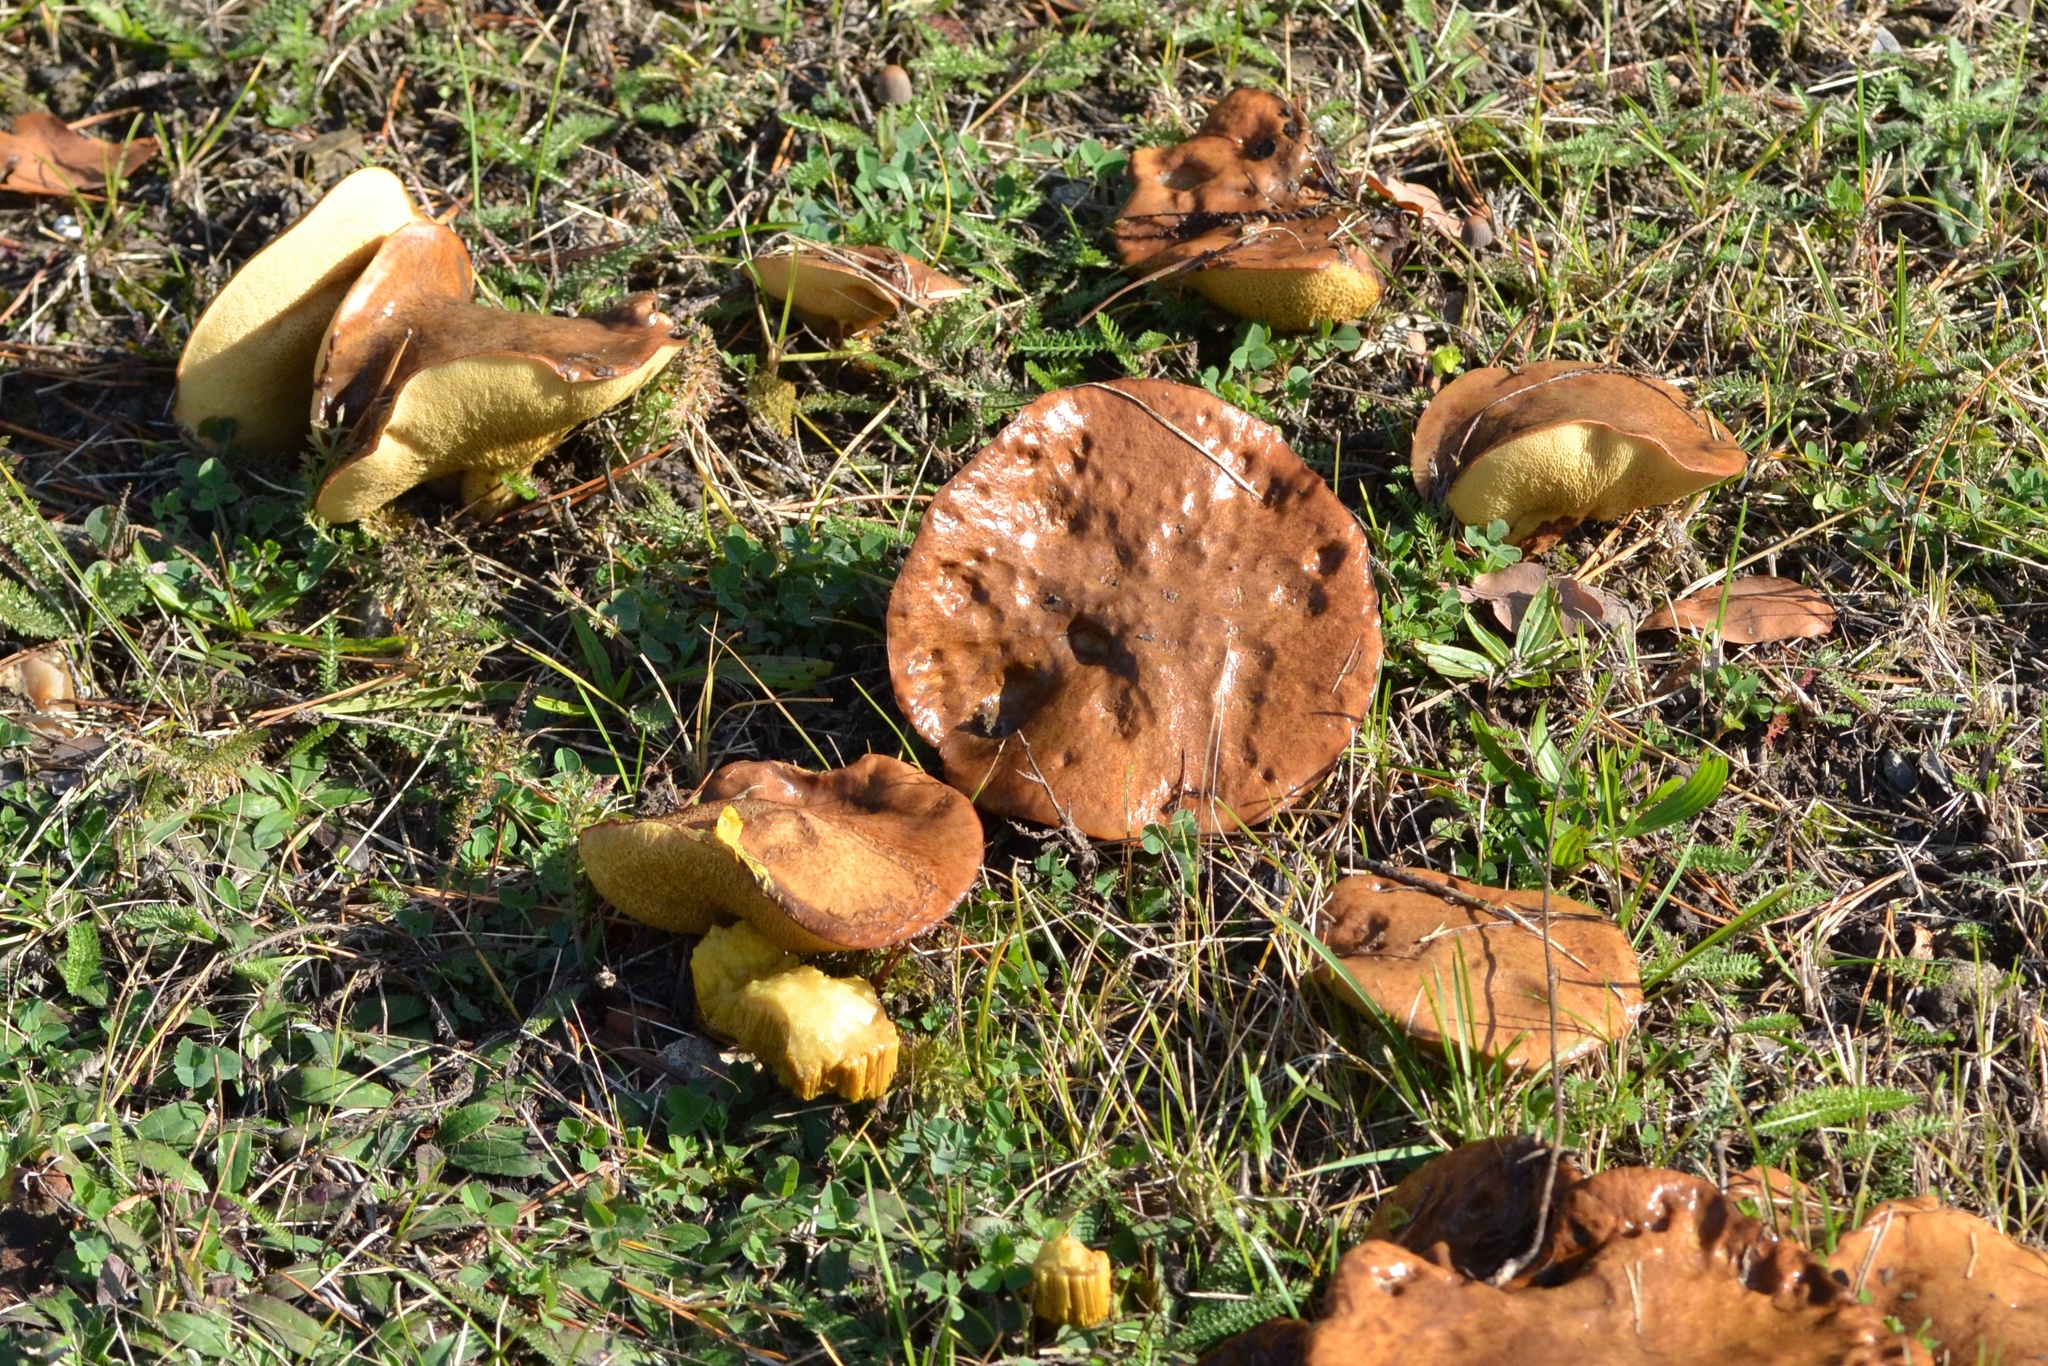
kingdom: Fungi
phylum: Basidiomycota
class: Agaricomycetes
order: Boletales
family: Suillaceae
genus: Suillus
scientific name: Suillus granulatus
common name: Weeping bolete
